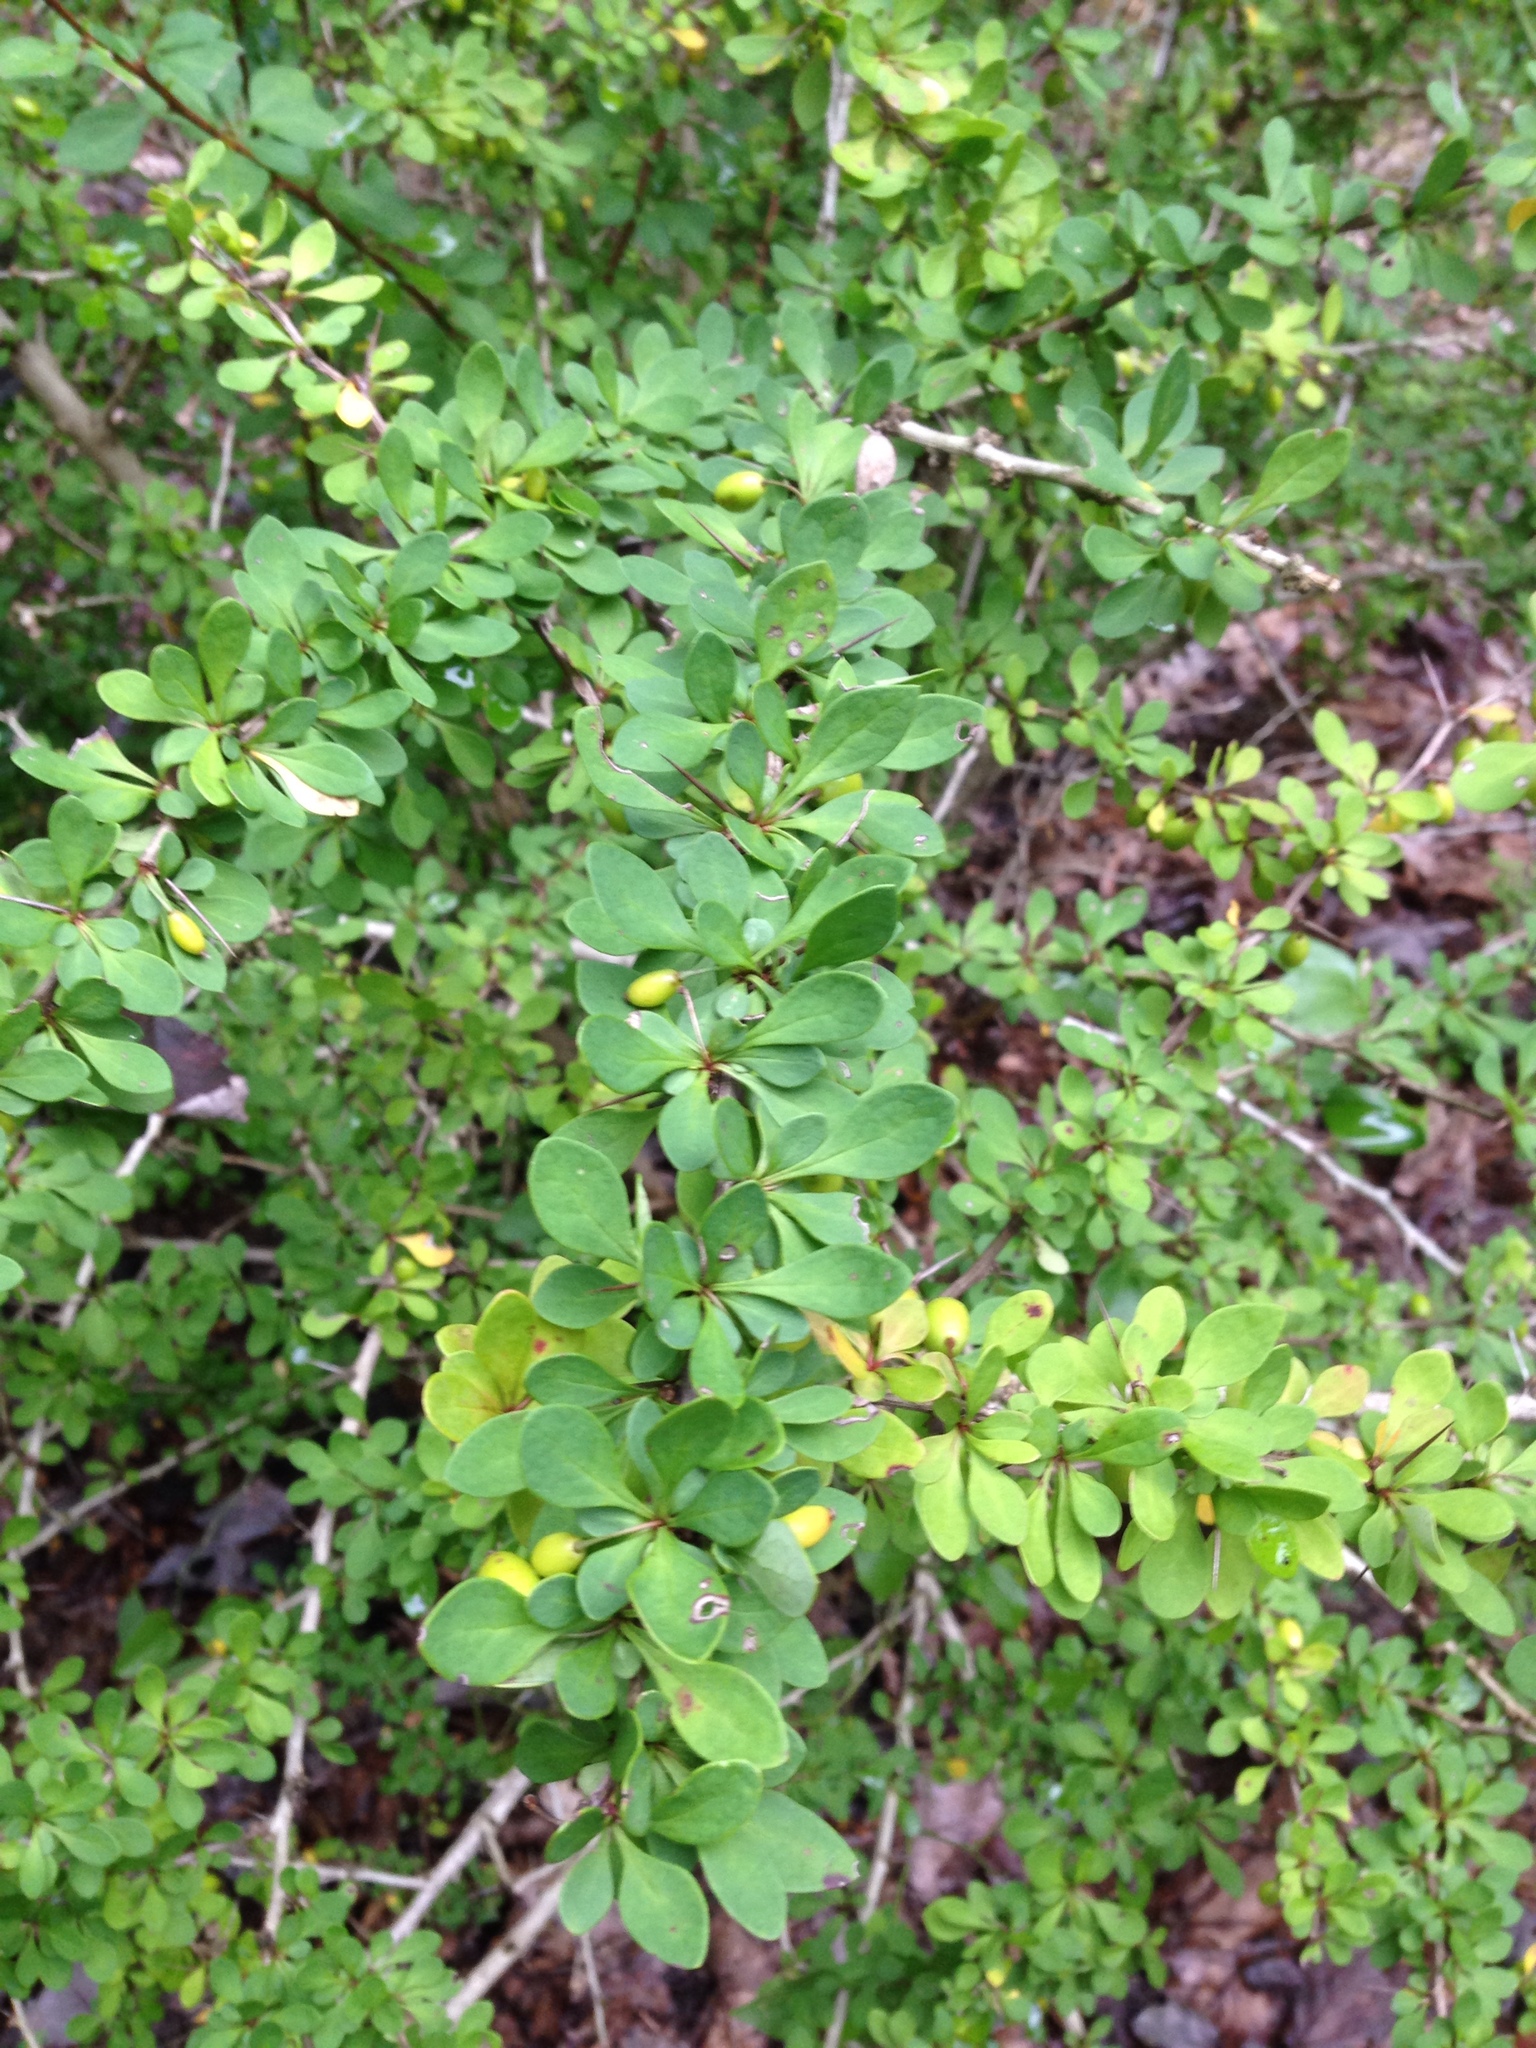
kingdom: Plantae
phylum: Tracheophyta
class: Magnoliopsida
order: Ranunculales
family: Berberidaceae
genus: Berberis
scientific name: Berberis thunbergii
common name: Japanese barberry
